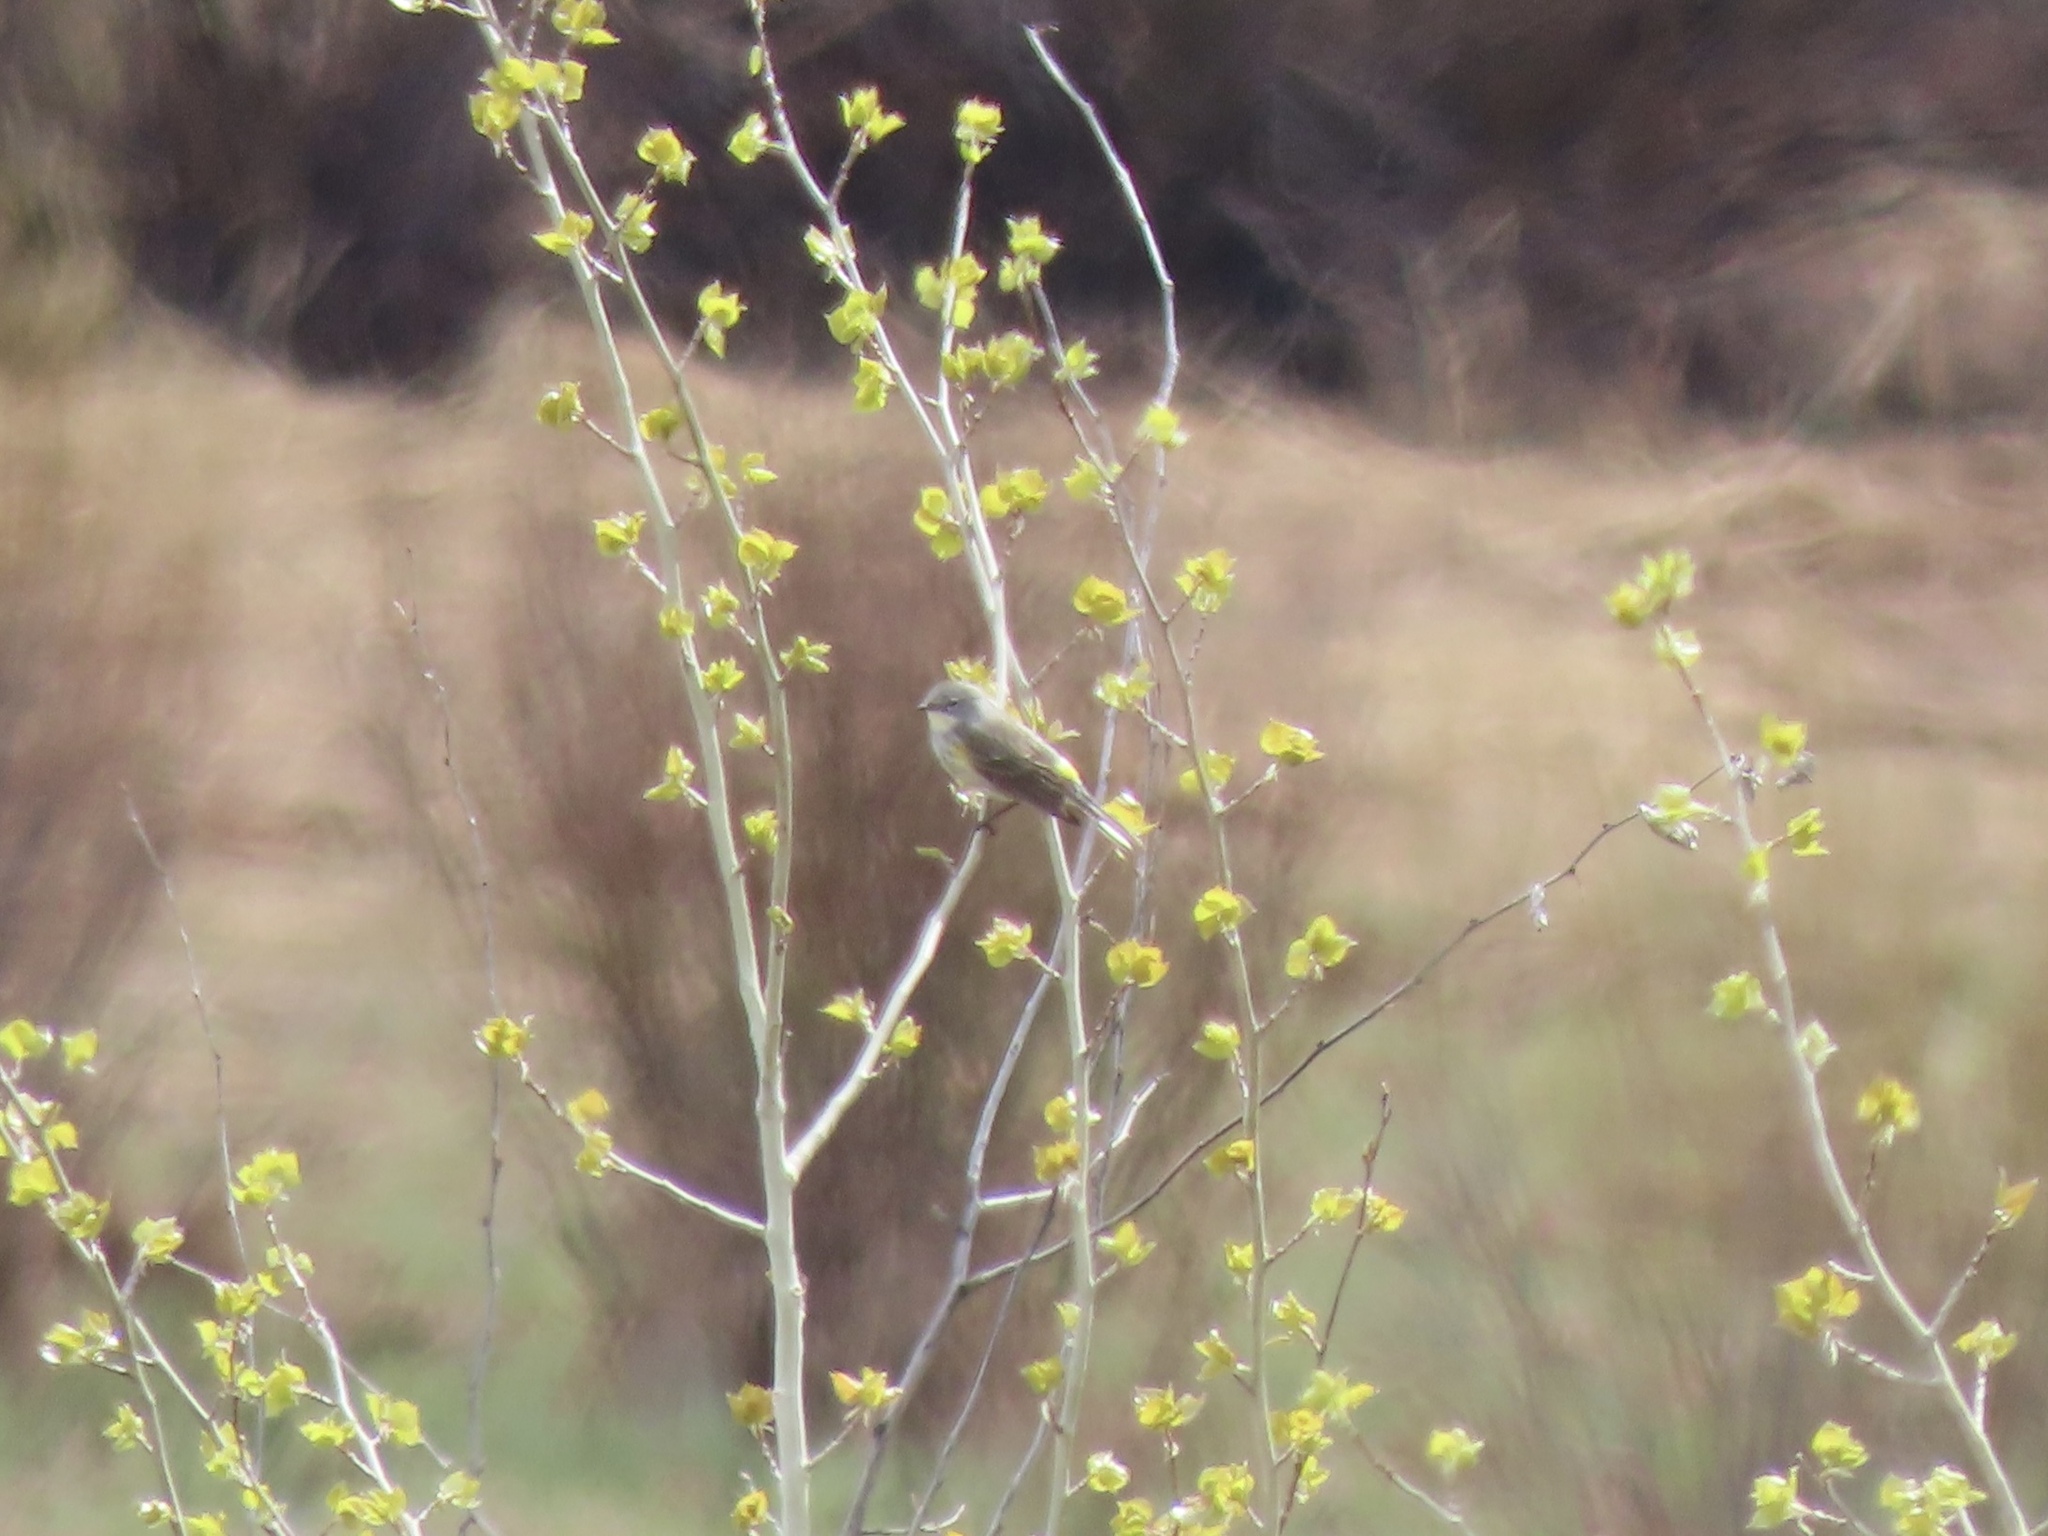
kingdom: Animalia
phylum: Chordata
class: Aves
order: Passeriformes
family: Parulidae
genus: Setophaga
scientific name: Setophaga coronata
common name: Myrtle warbler
